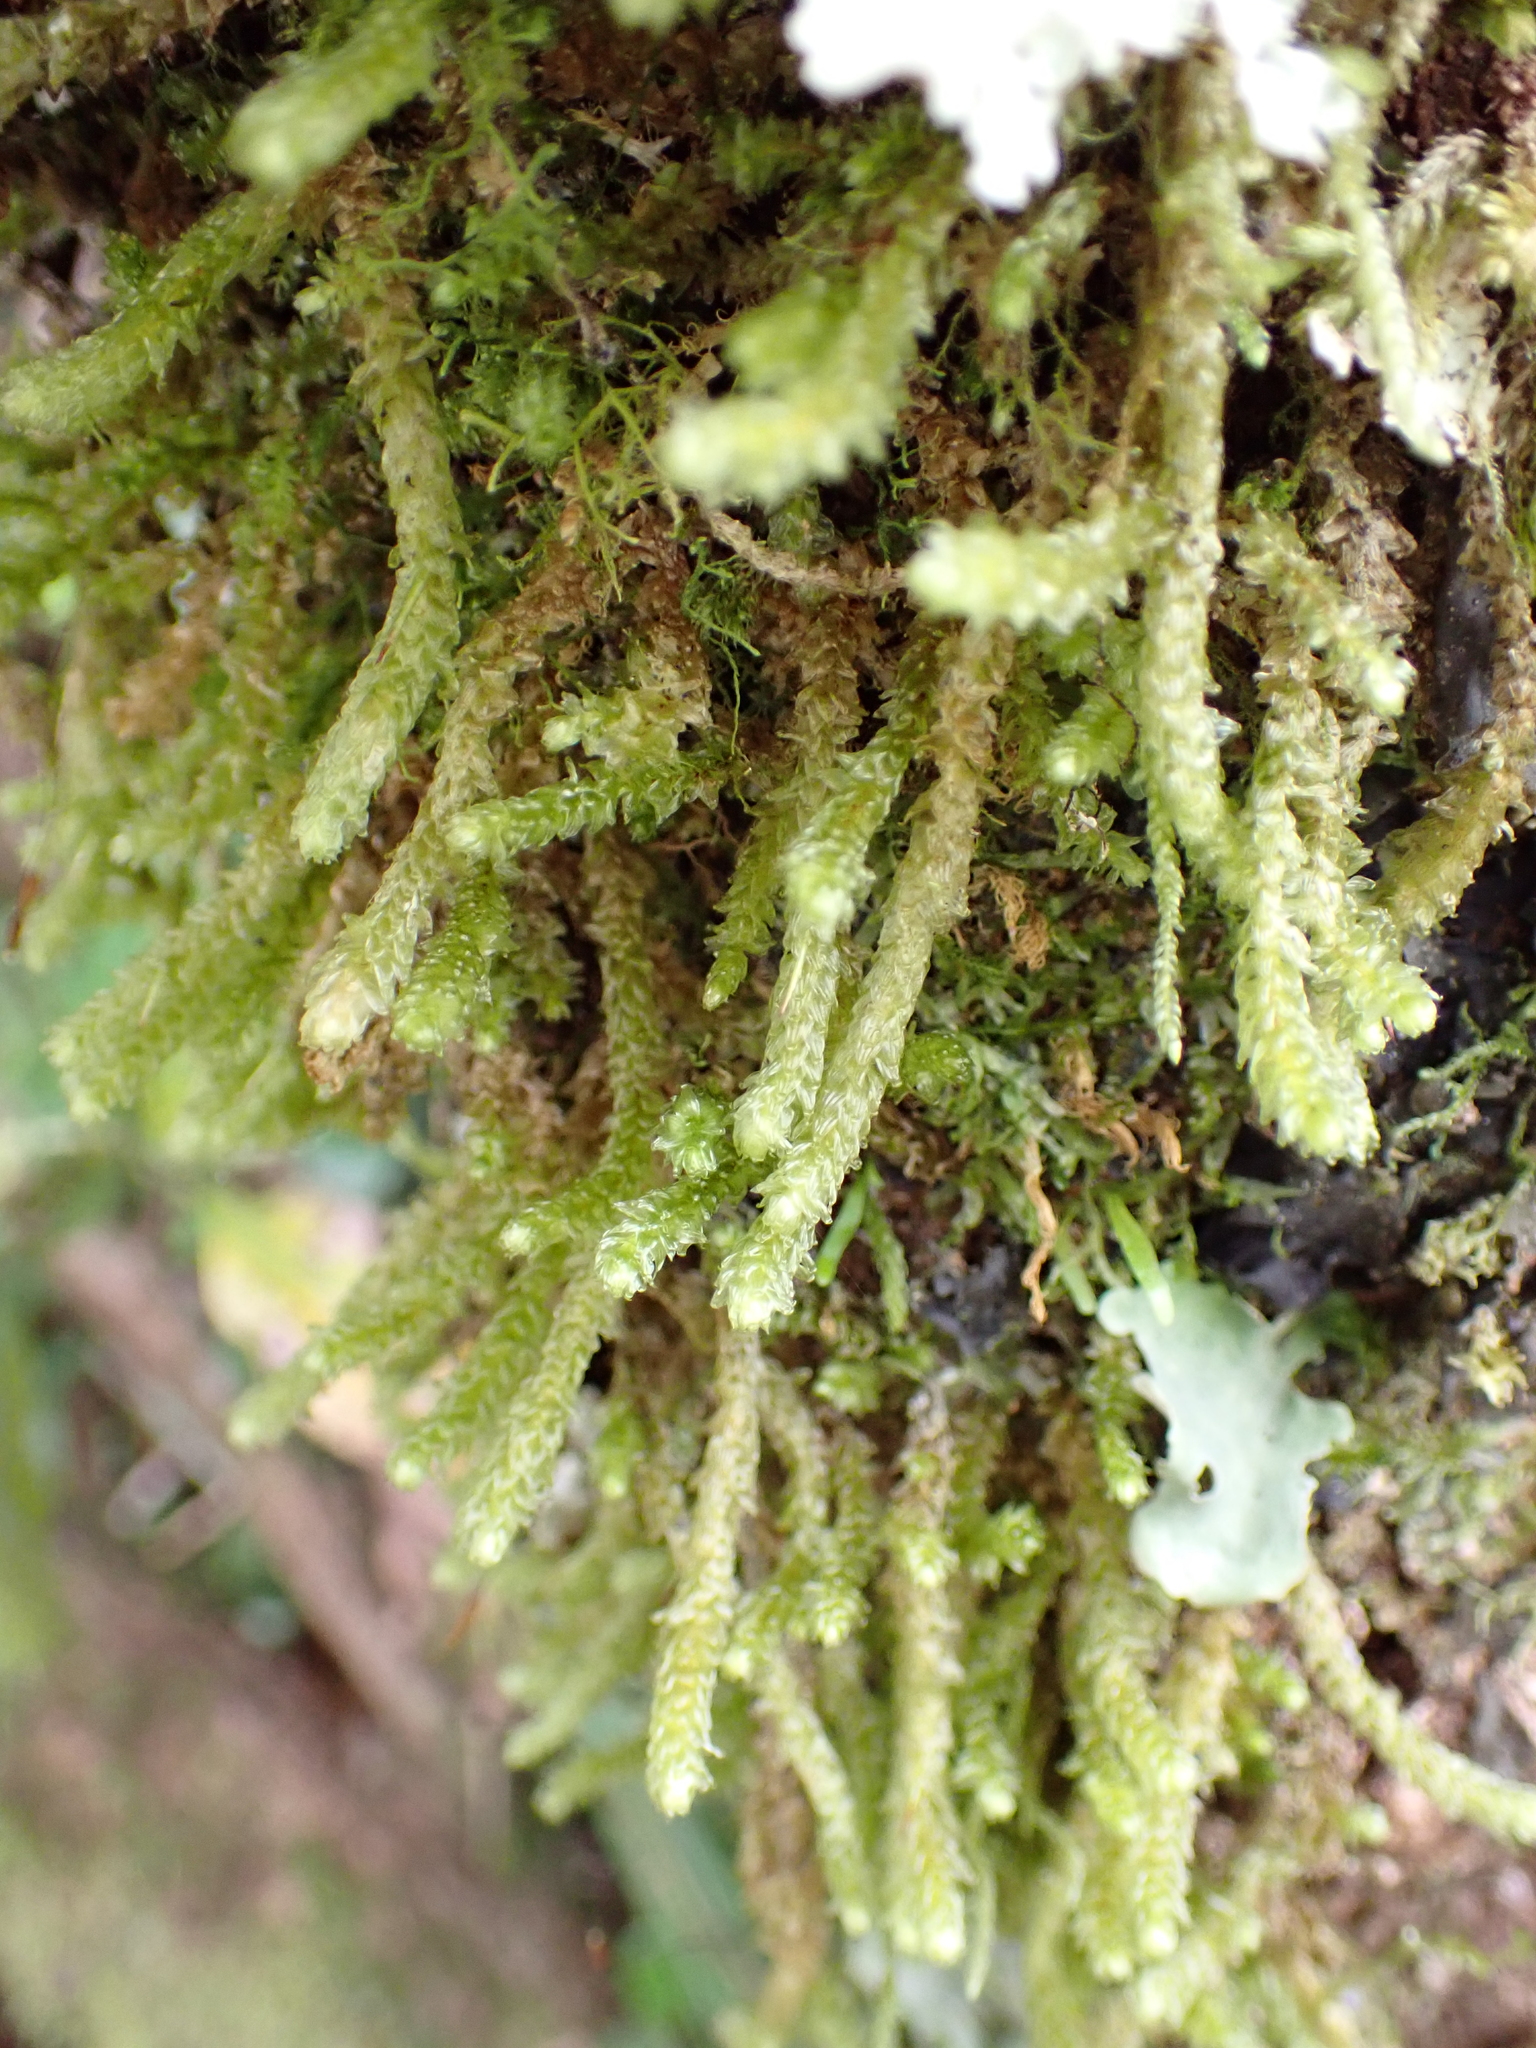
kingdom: Plantae
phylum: Bryophyta
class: Bryopsida
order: Ptychomniales
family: Ptychomniaceae
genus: Cladomnion
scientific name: Cladomnion ericoides
